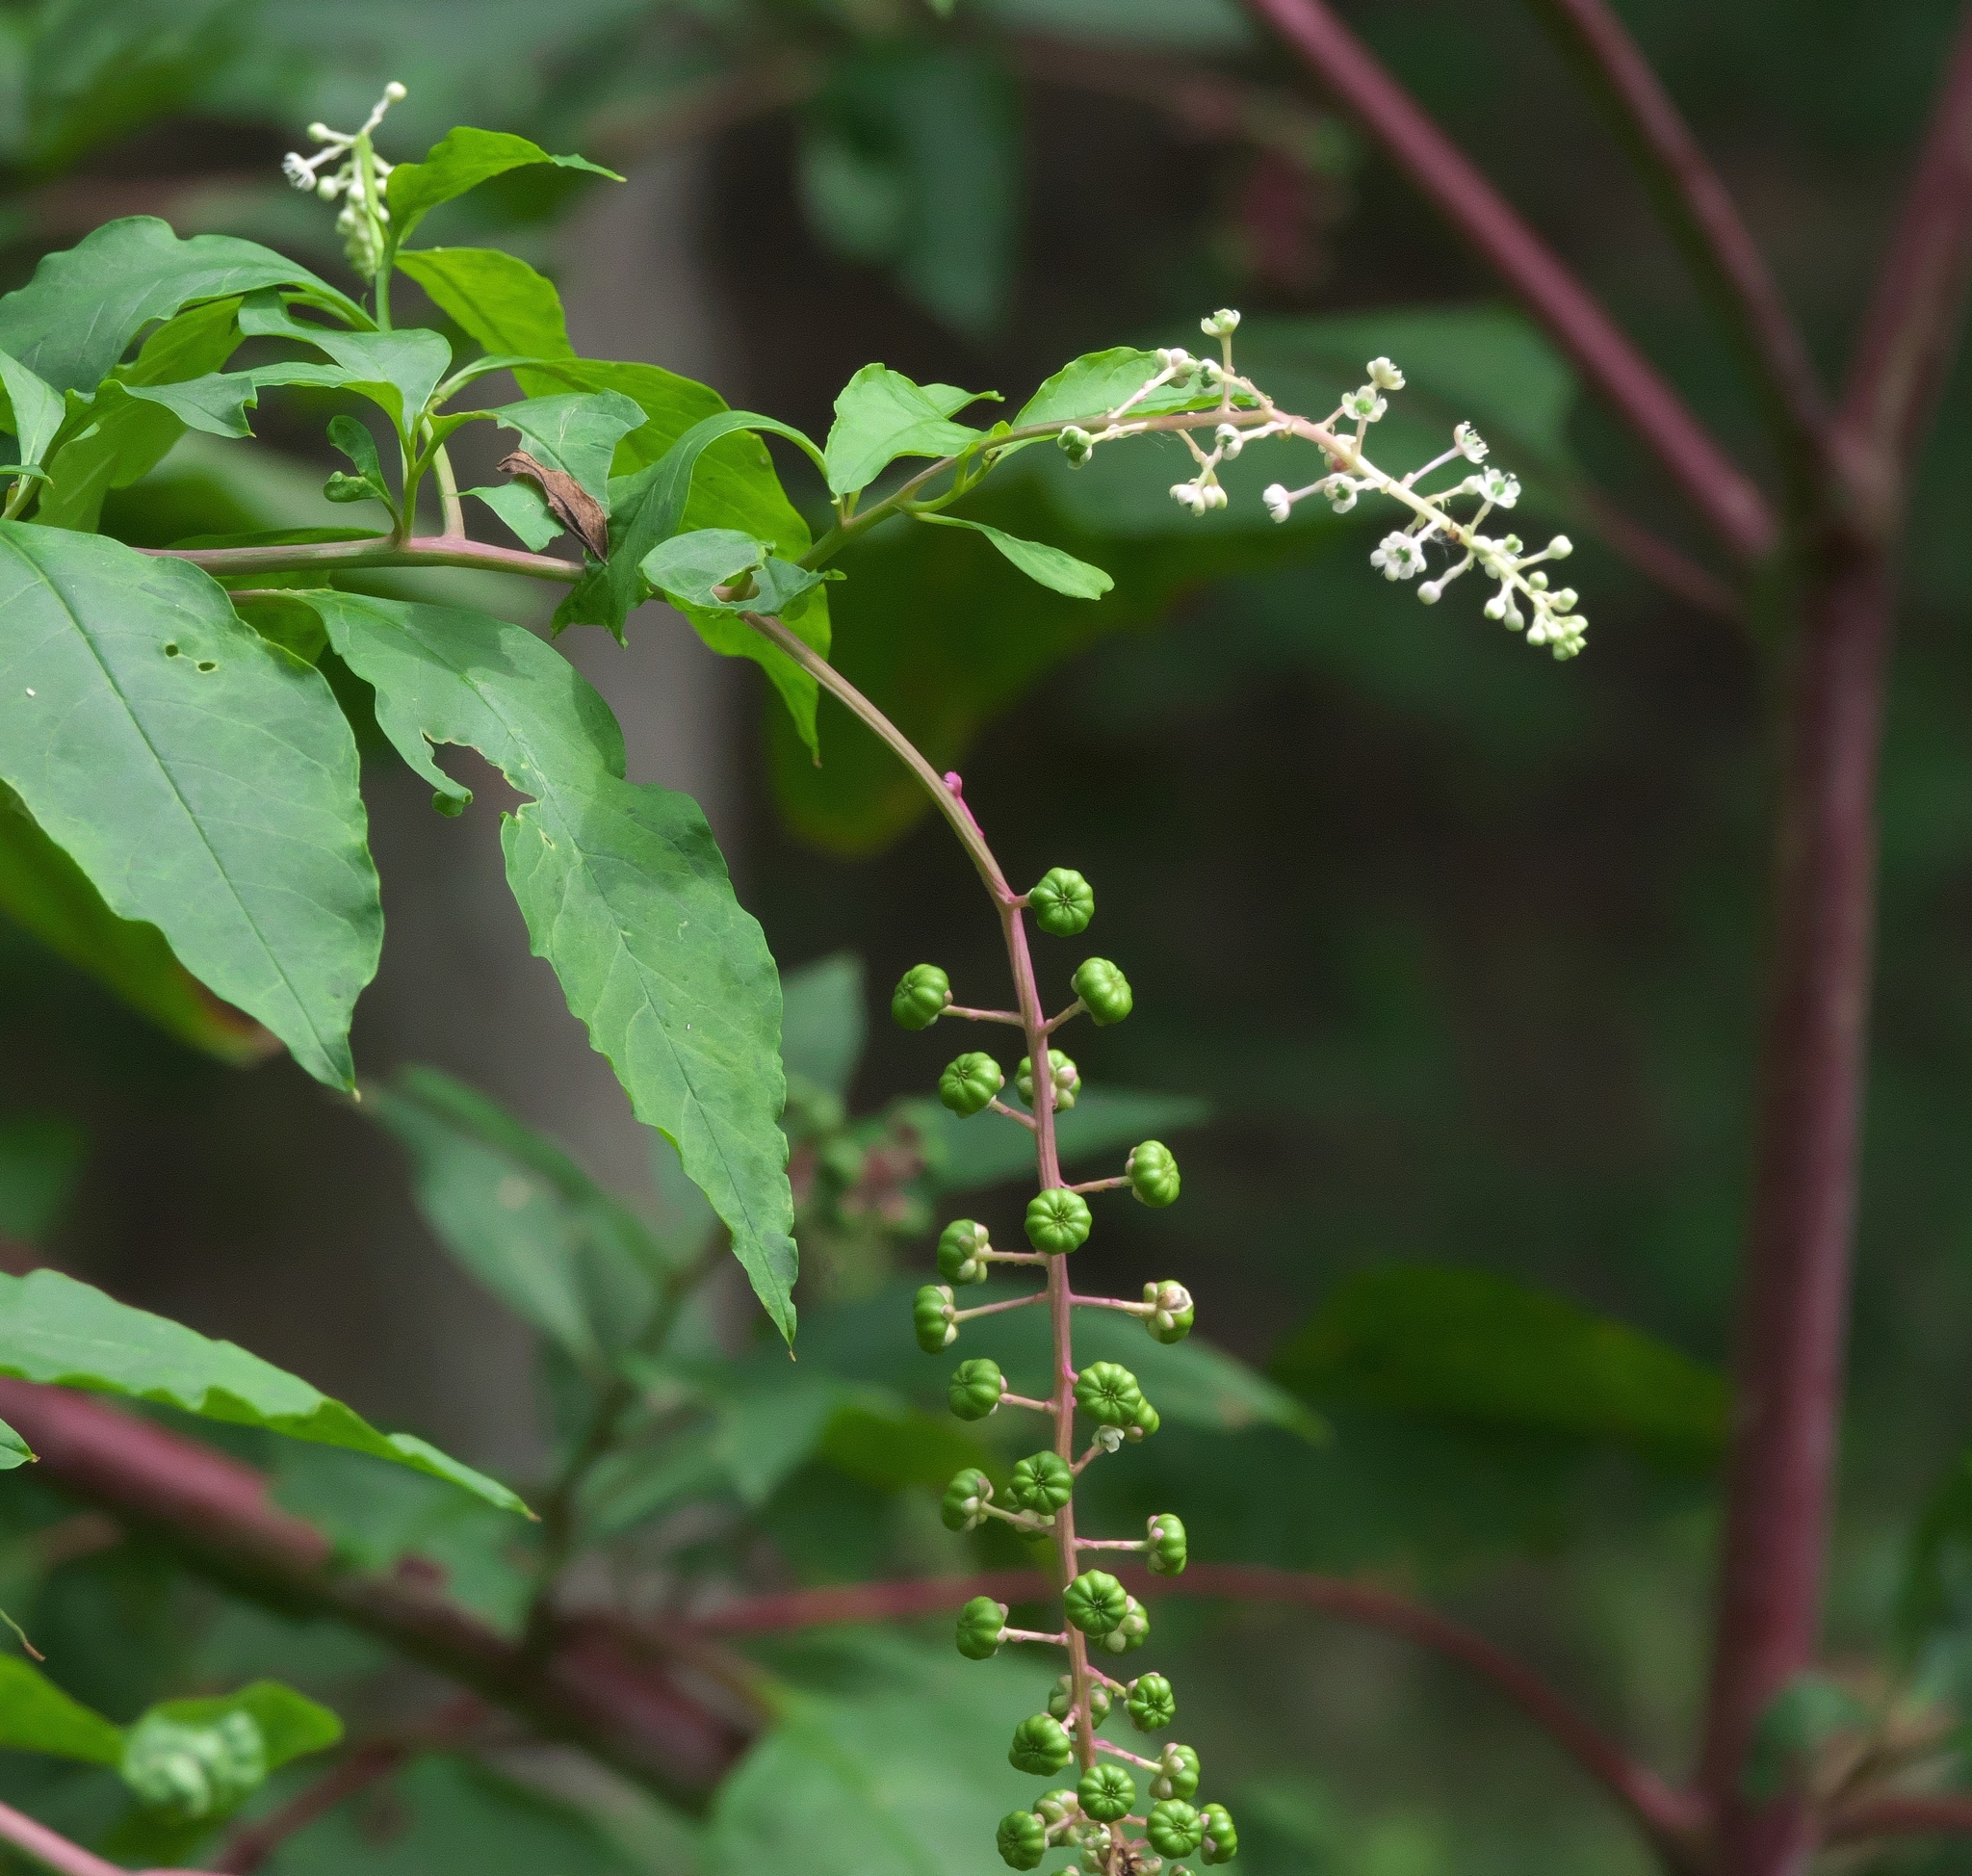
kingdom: Plantae
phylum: Tracheophyta
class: Magnoliopsida
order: Caryophyllales
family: Phytolaccaceae
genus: Phytolacca
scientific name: Phytolacca americana
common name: American pokeweed
